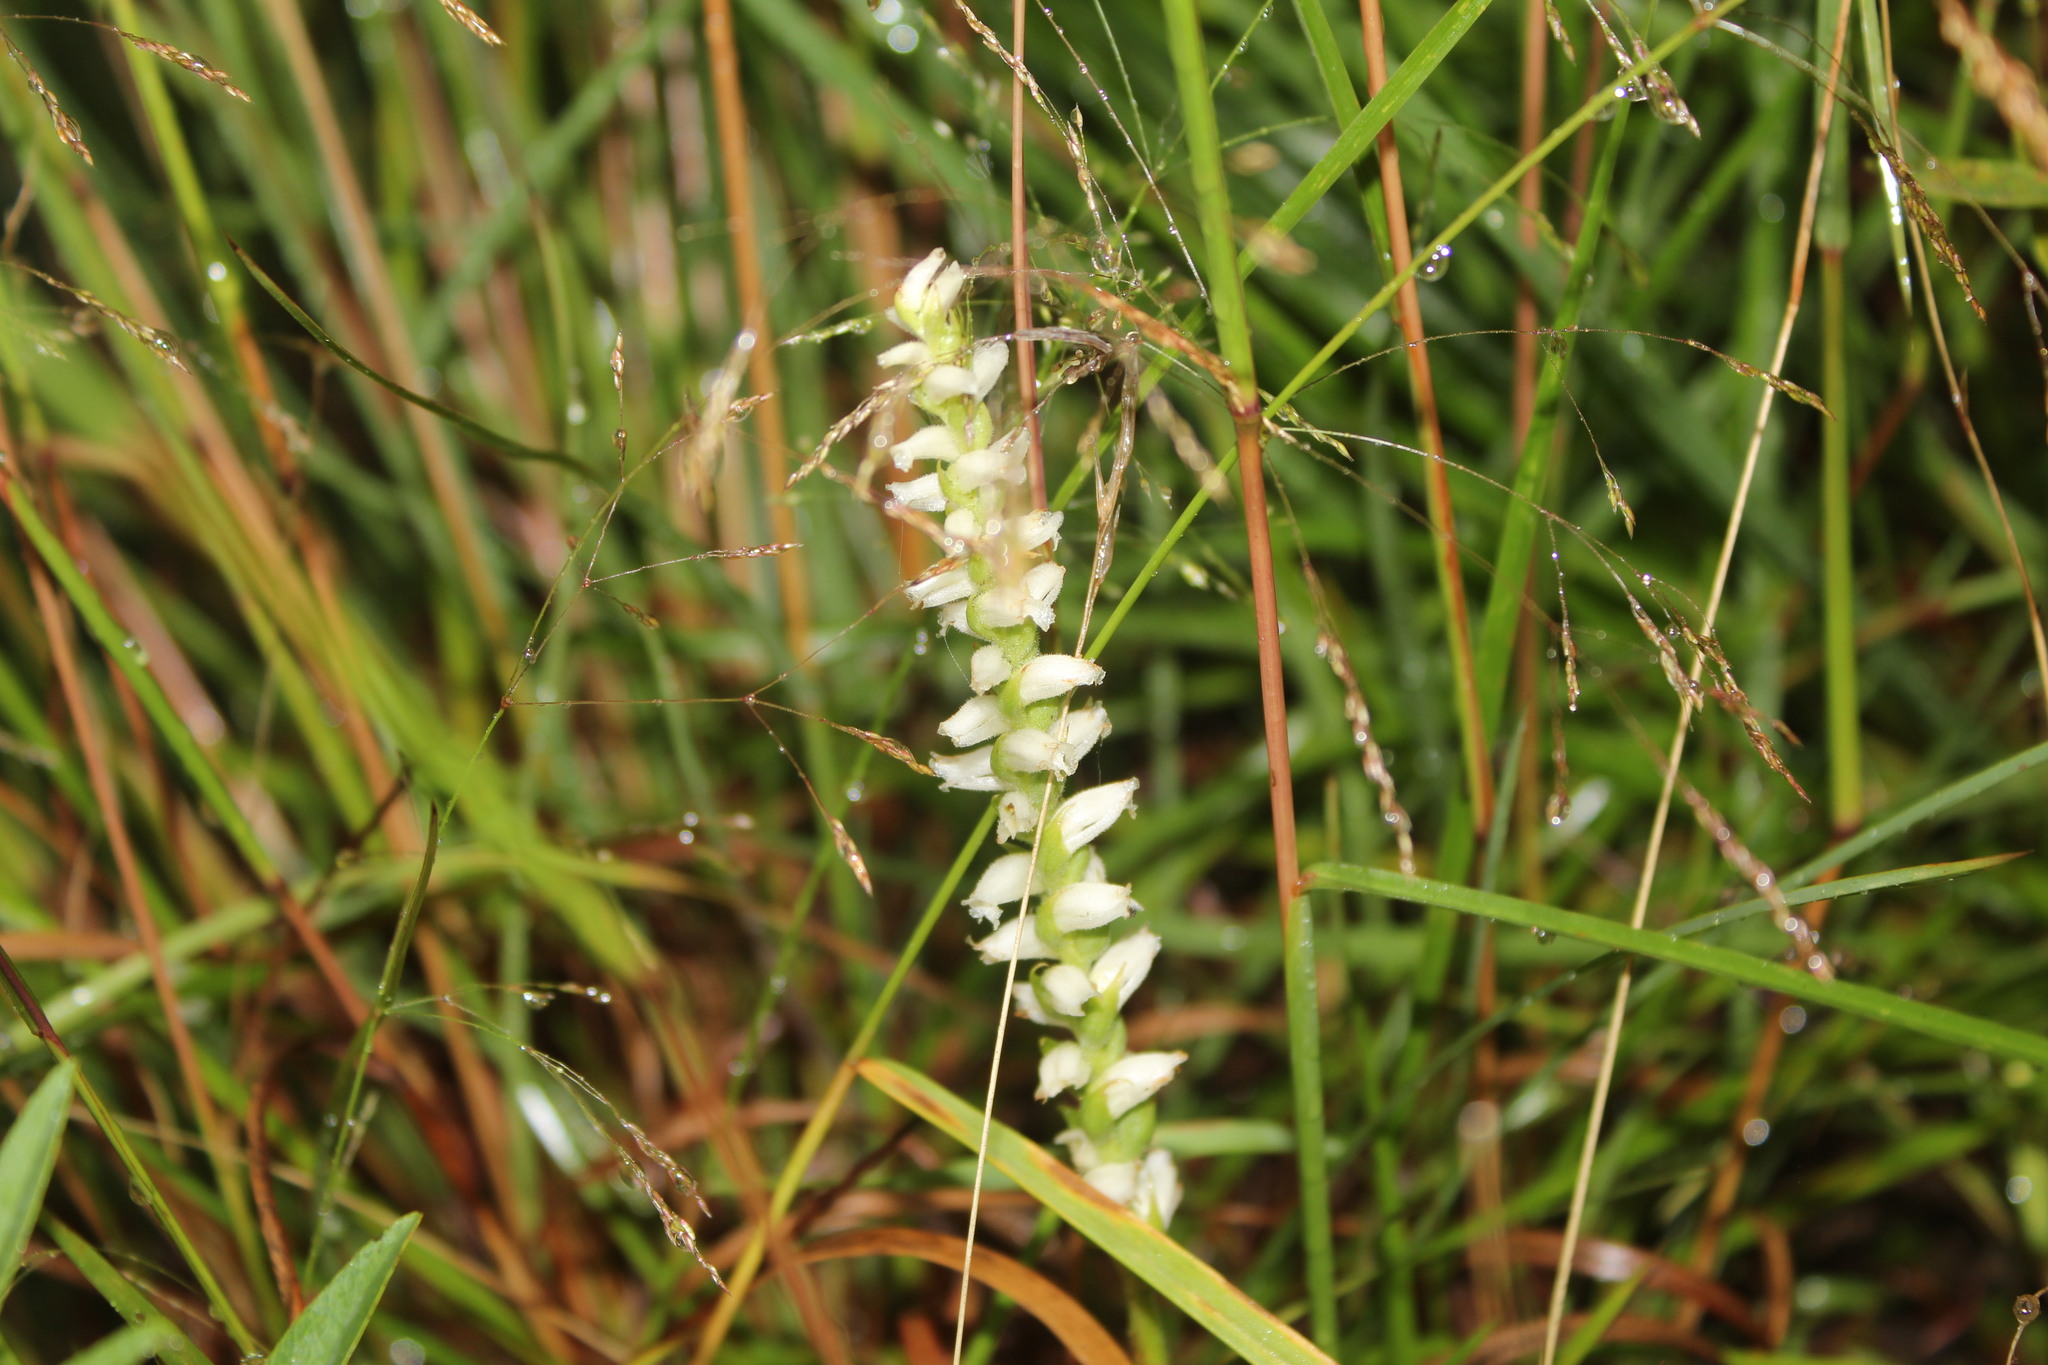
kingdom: Plantae
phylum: Tracheophyta
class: Liliopsida
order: Asparagales
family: Orchidaceae
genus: Spiranthes
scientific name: Spiranthes ochroleuca
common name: Yellow ladies'-tresses
